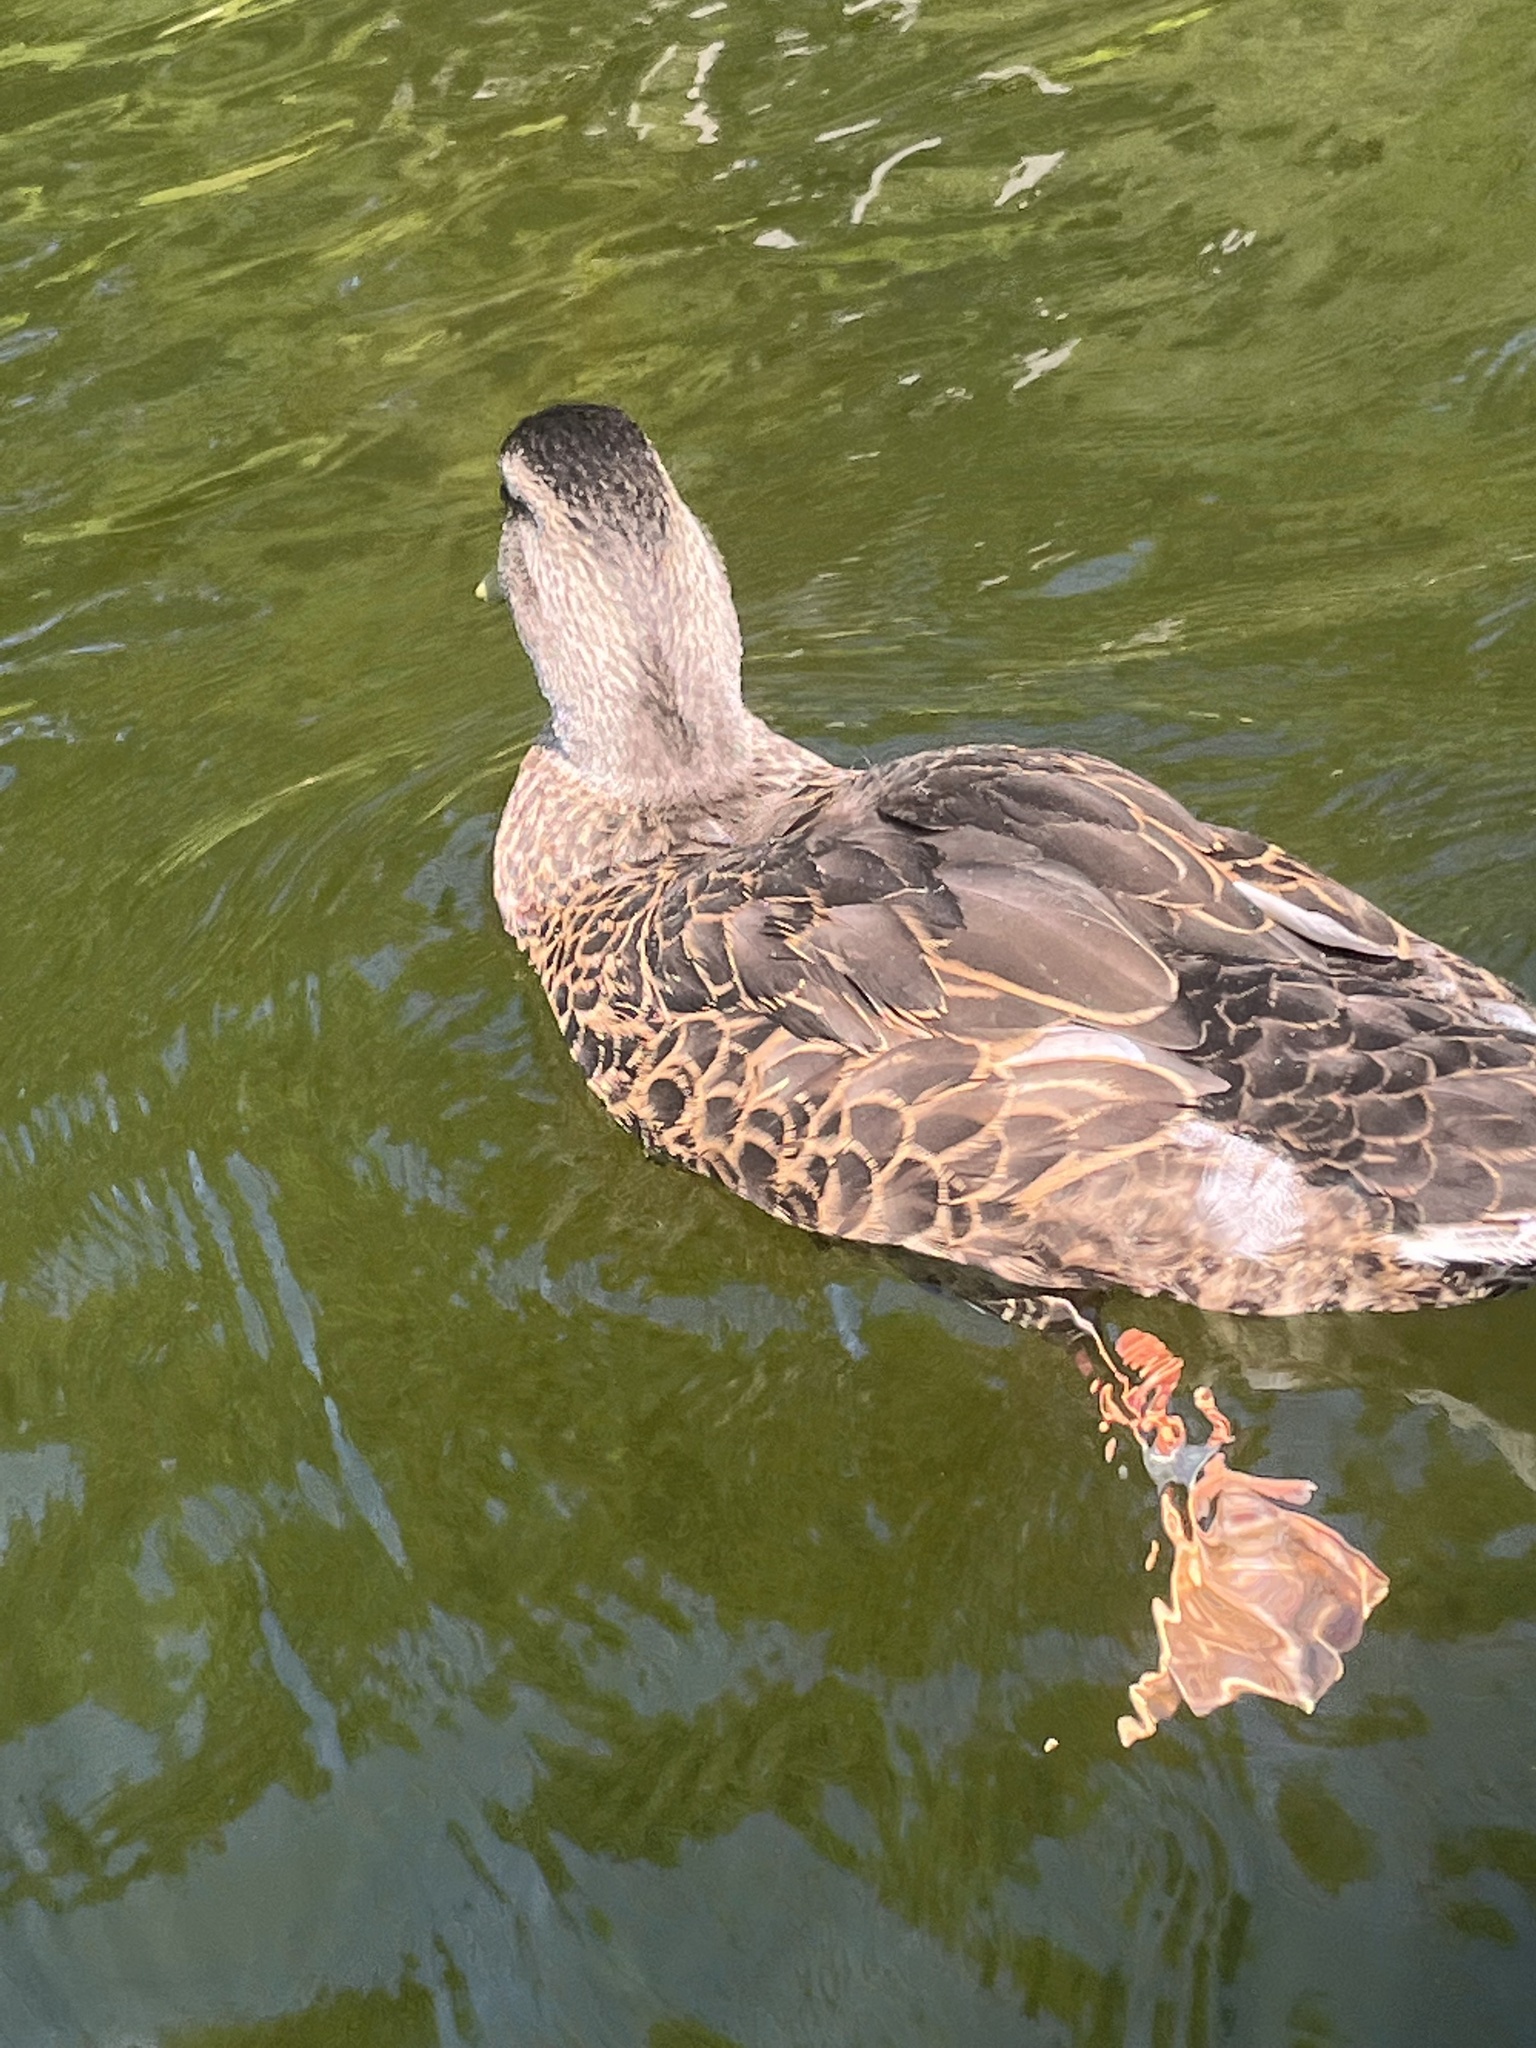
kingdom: Animalia
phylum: Chordata
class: Aves
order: Anseriformes
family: Anatidae
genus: Anas
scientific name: Anas platyrhynchos
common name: Mallard
